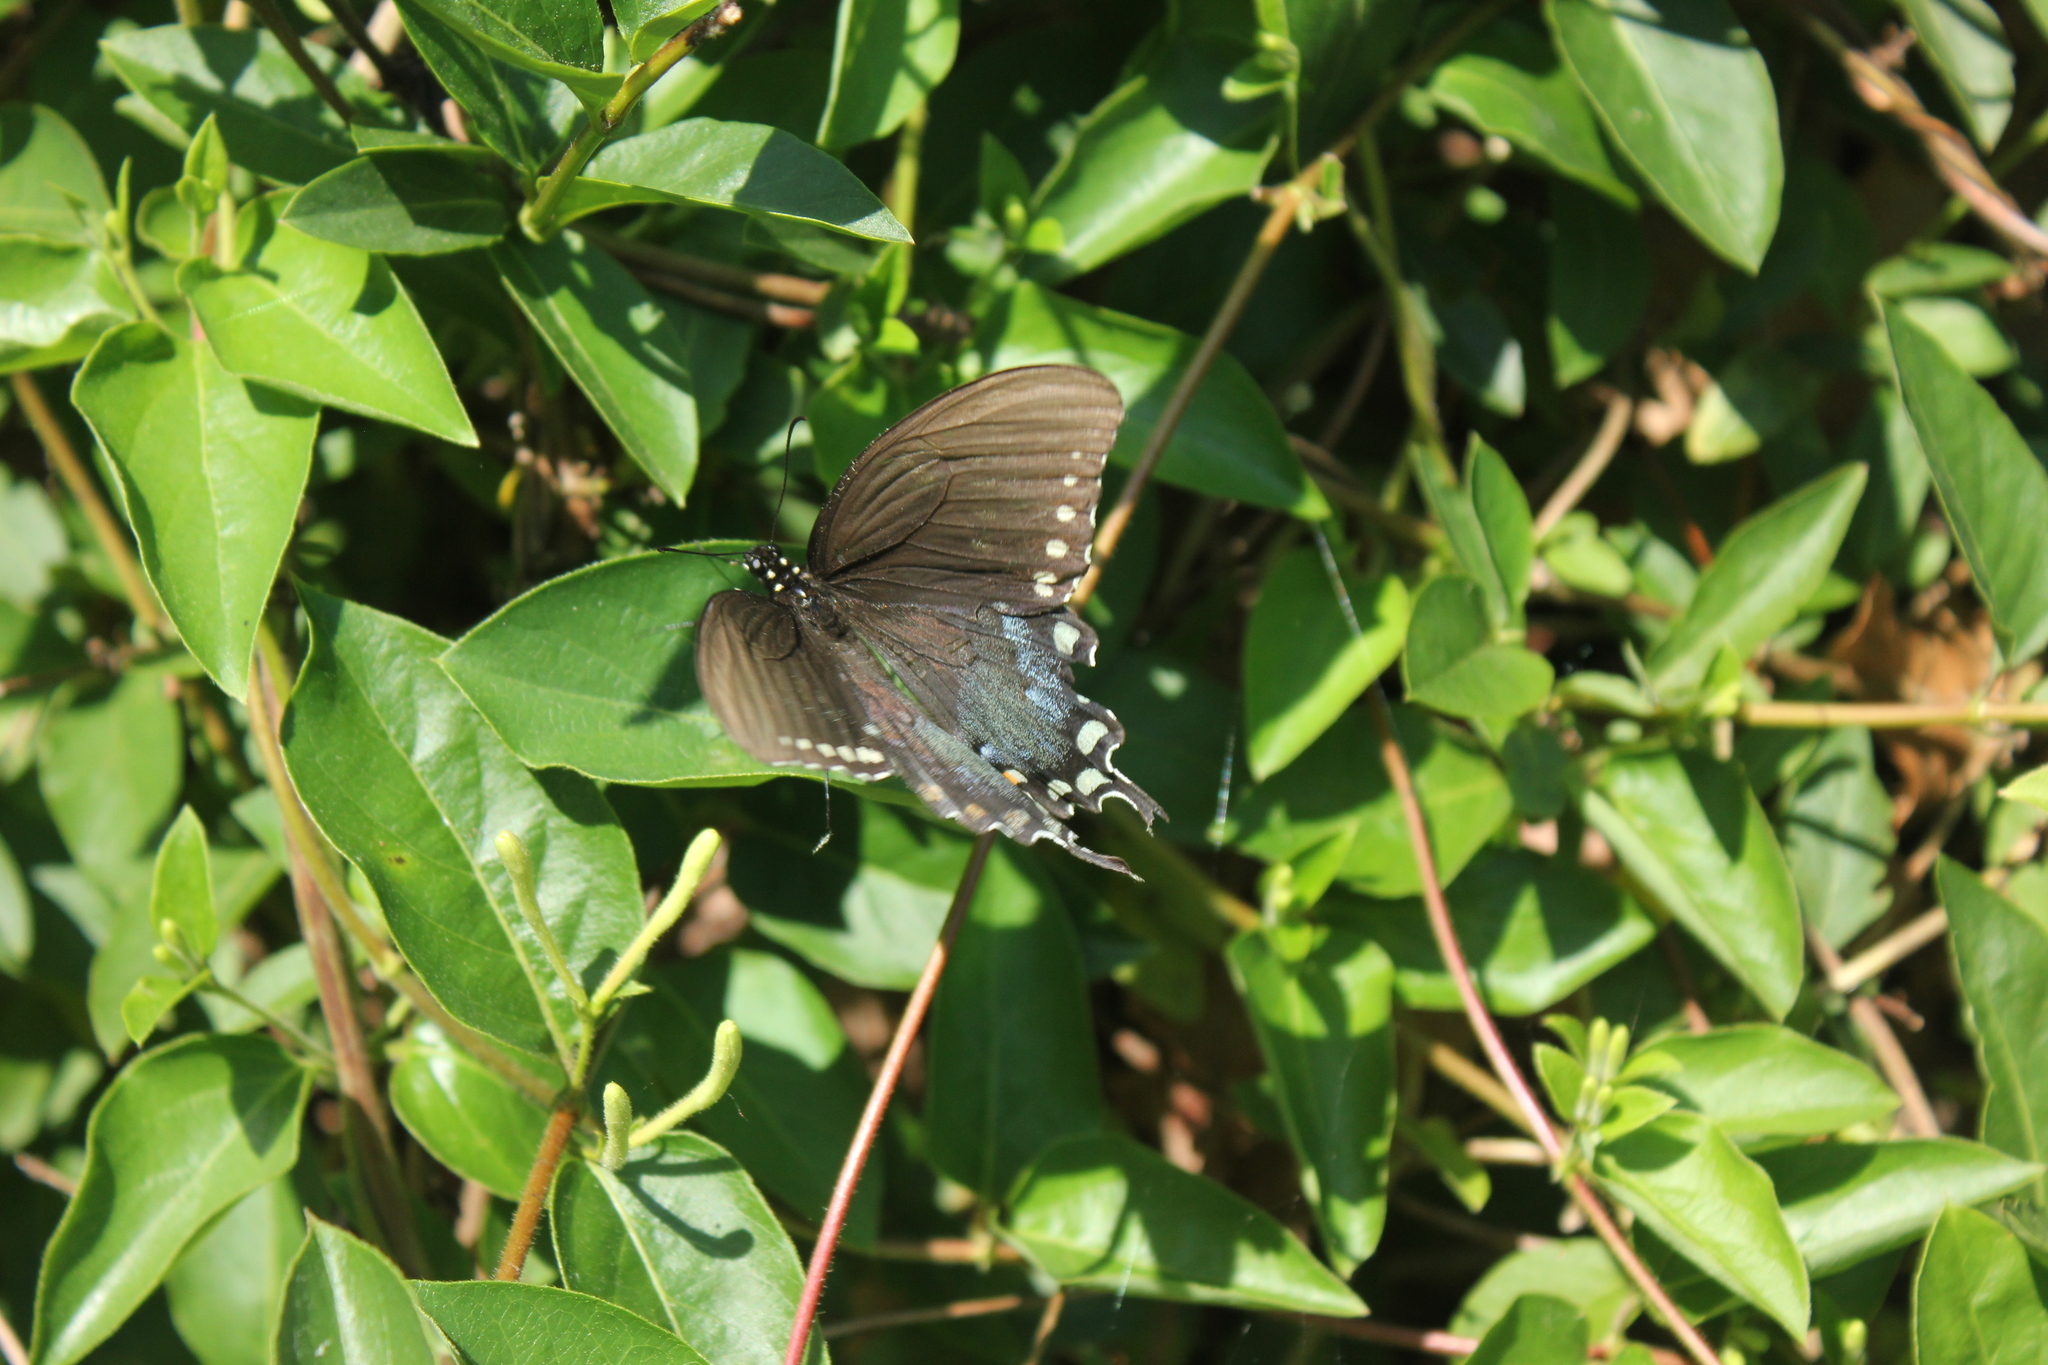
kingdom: Animalia
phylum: Arthropoda
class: Insecta
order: Lepidoptera
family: Papilionidae
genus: Papilio
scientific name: Papilio troilus
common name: Spicebush swallowtail
